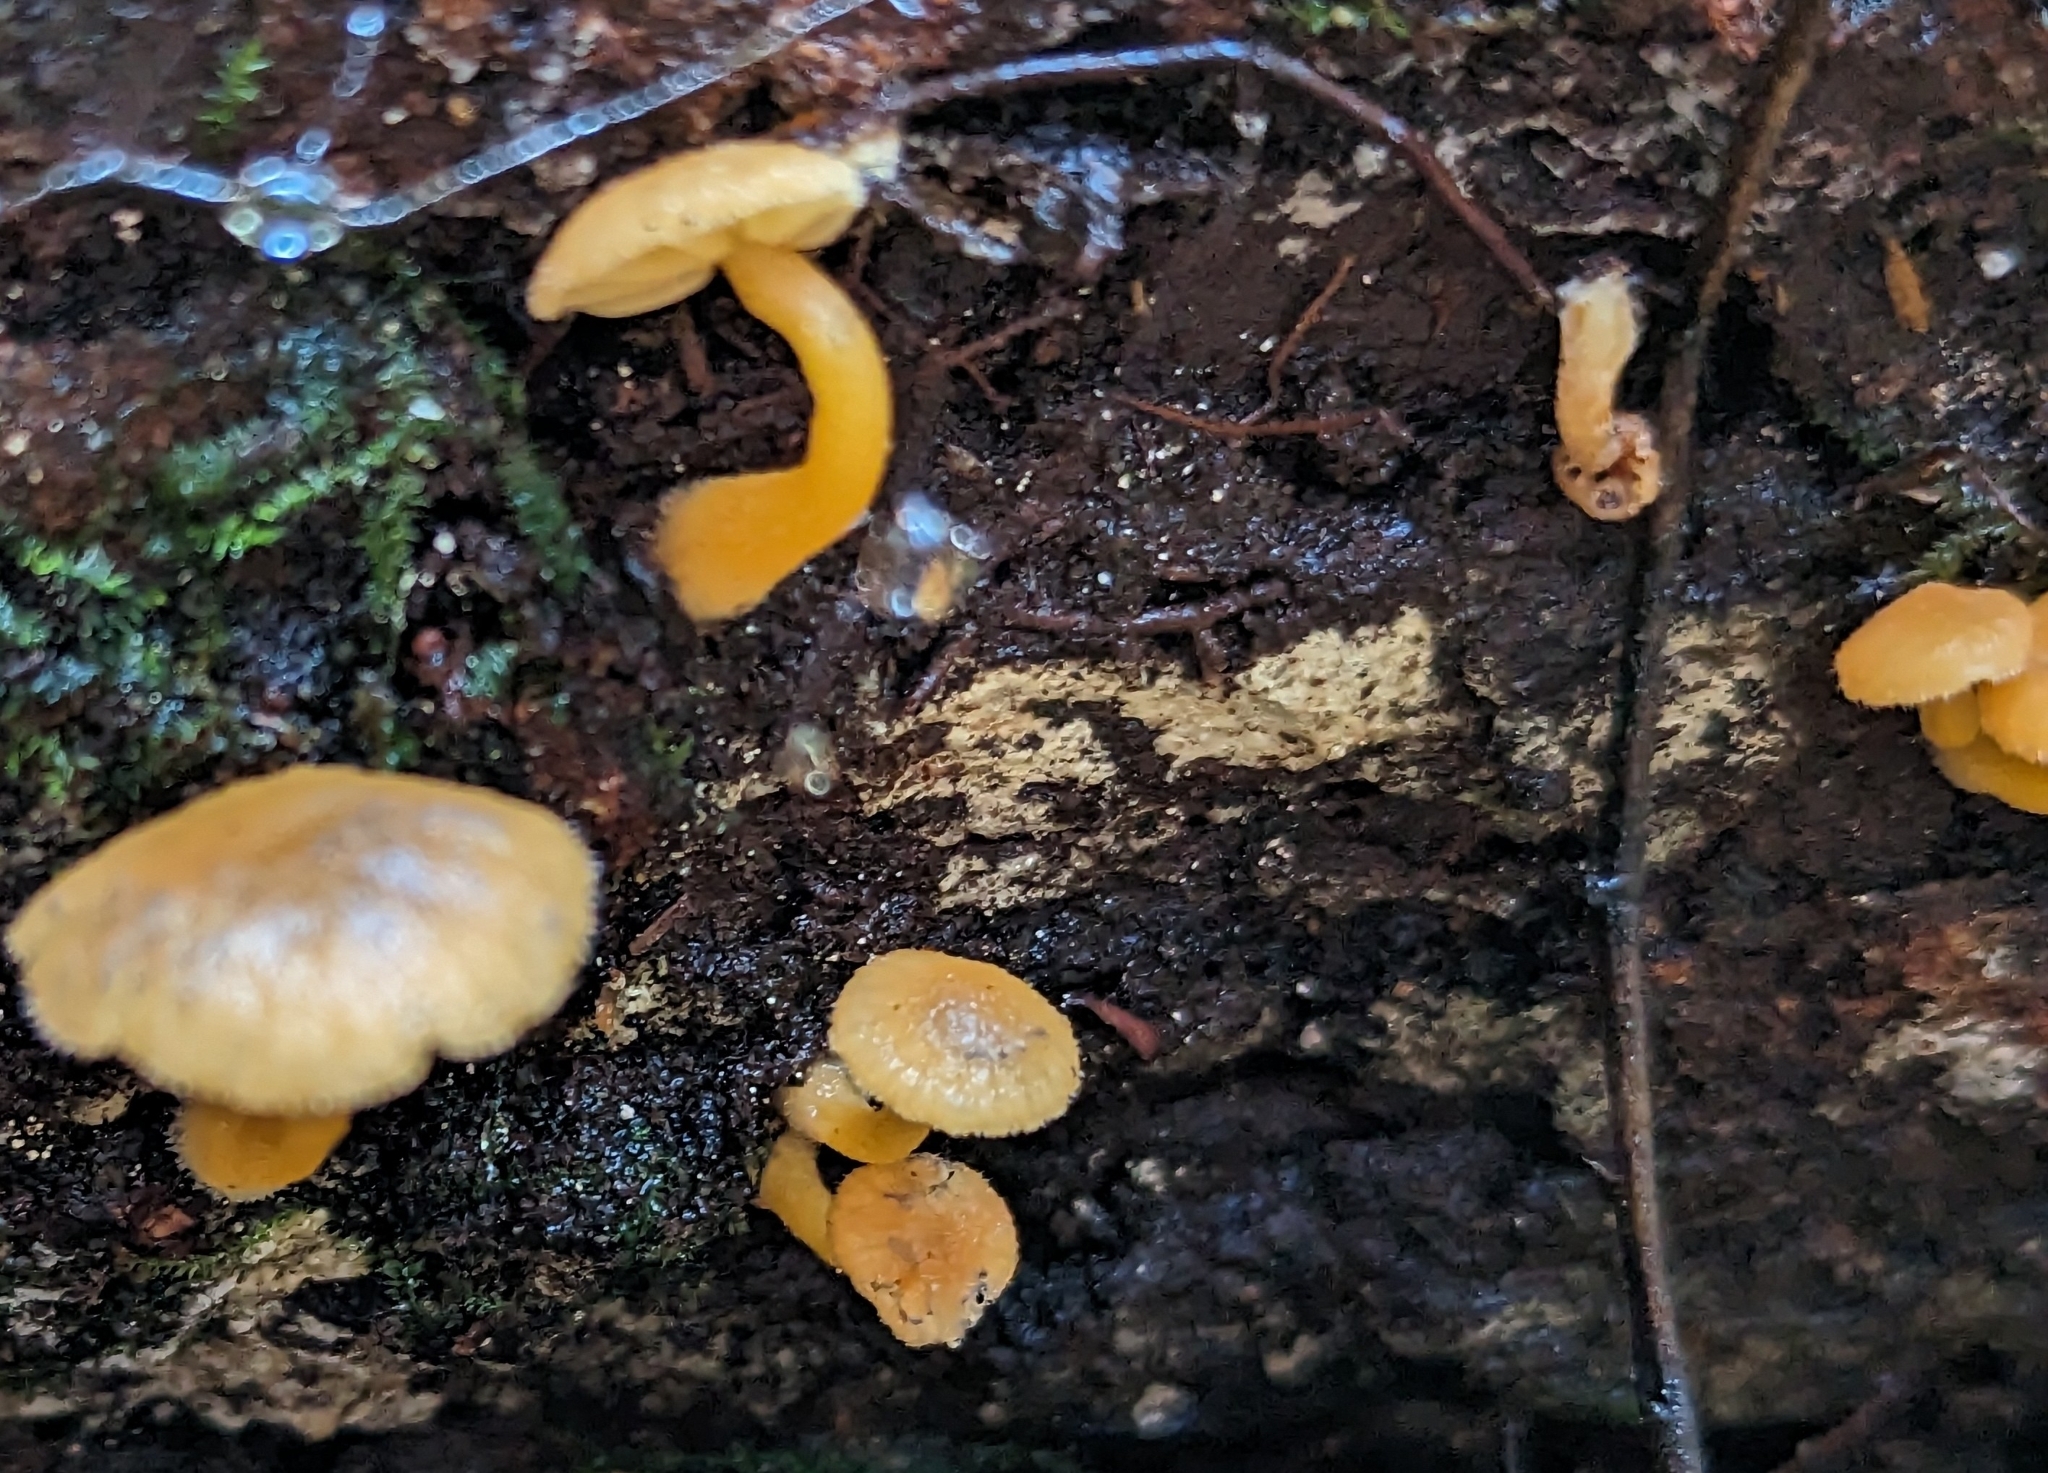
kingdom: Fungi
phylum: Basidiomycota
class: Agaricomycetes
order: Agaricales
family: Hygrophoraceae
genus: Chrysomphalina
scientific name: Chrysomphalina aurantiaca
